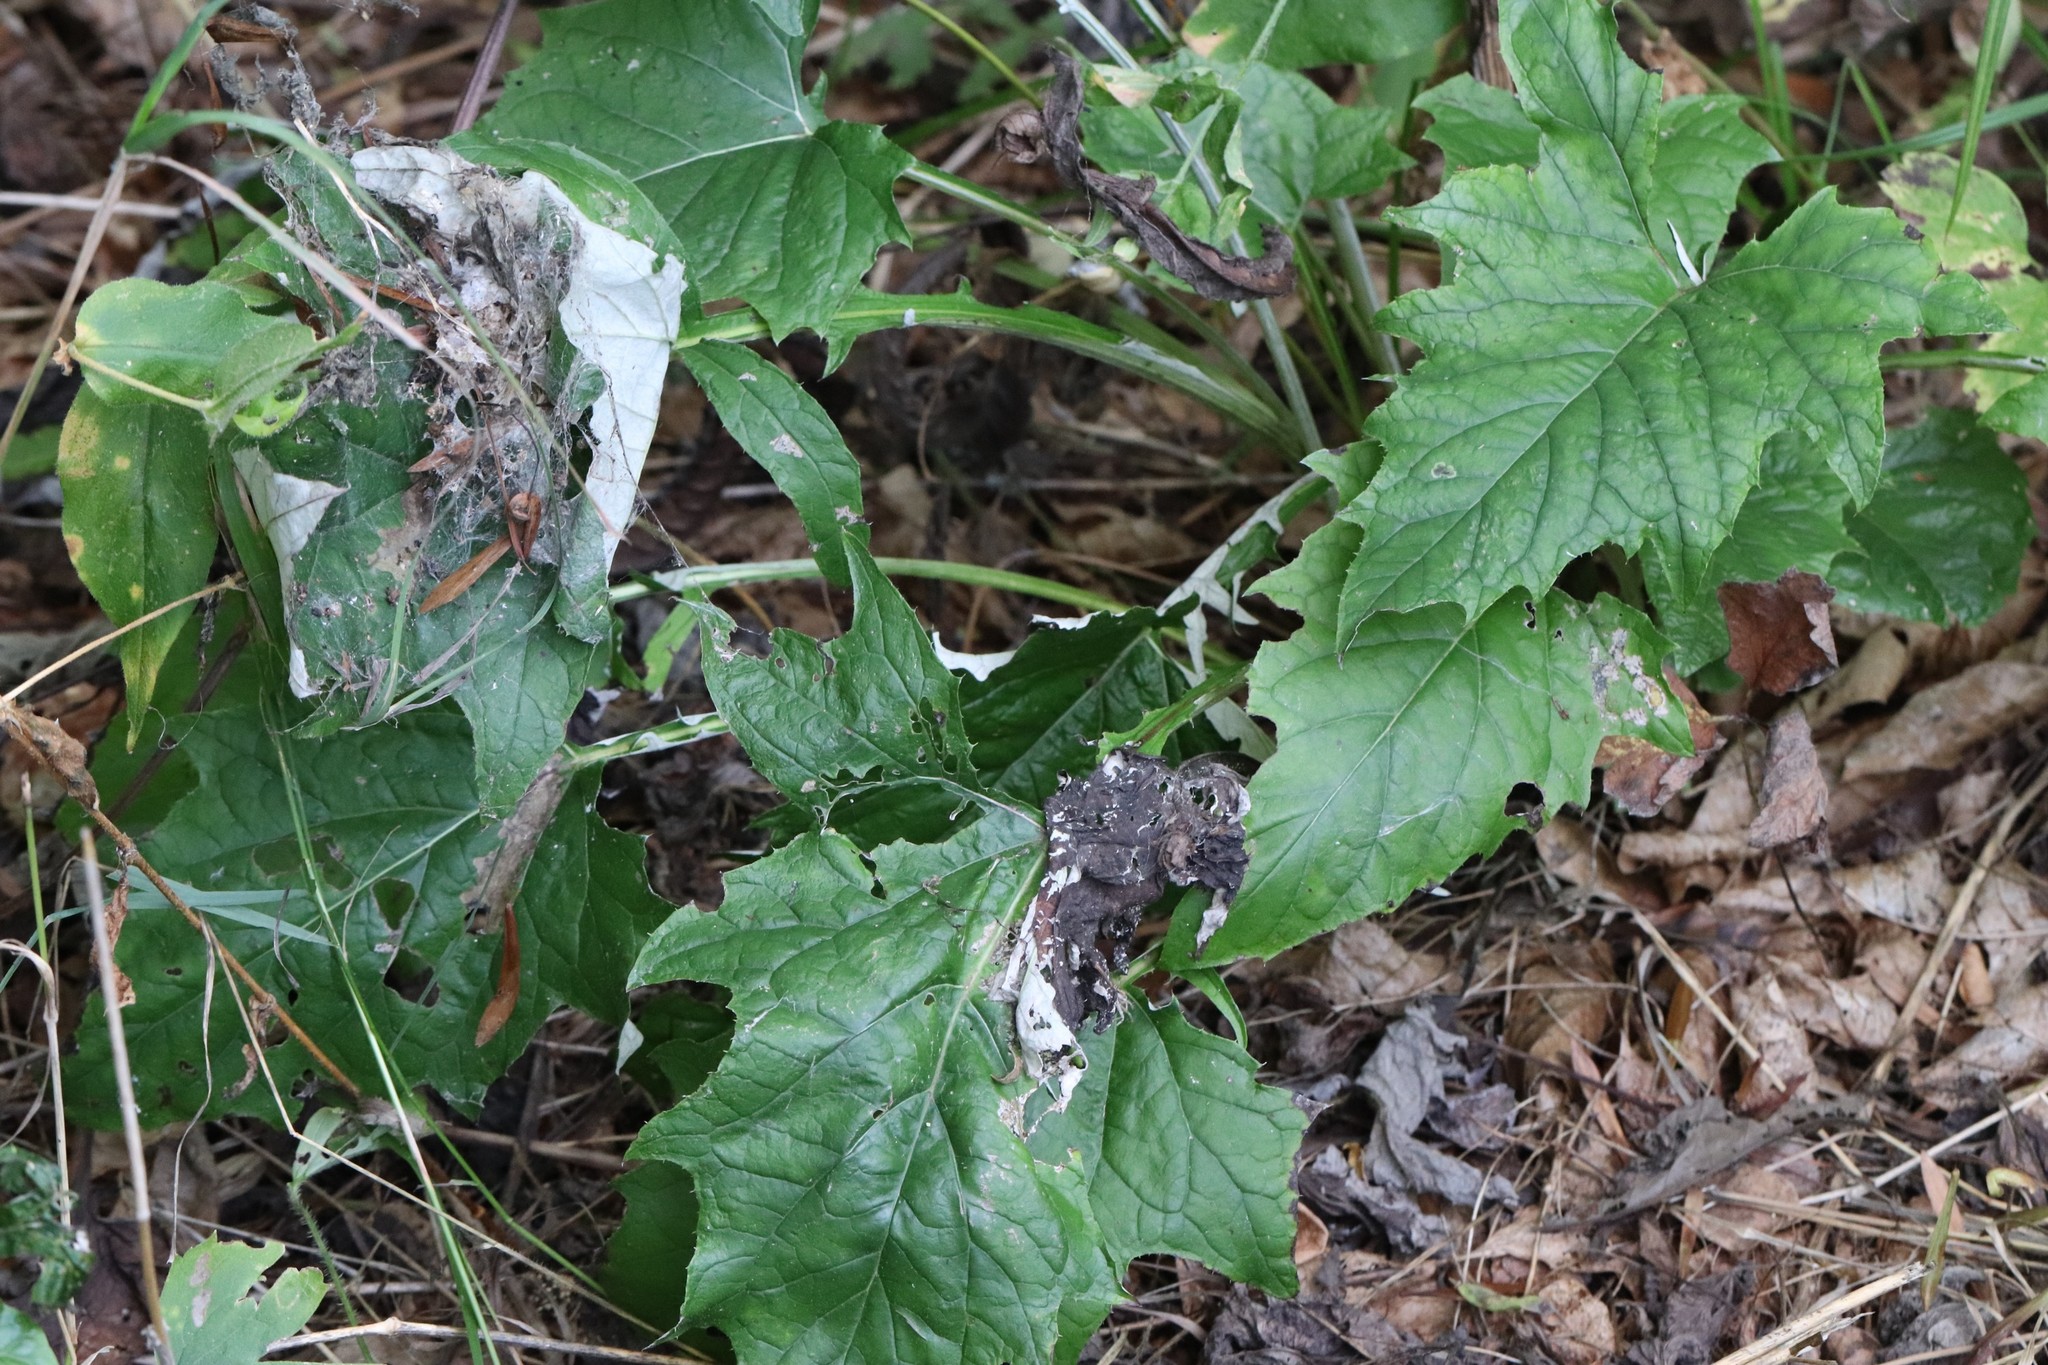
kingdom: Plantae
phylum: Tracheophyta
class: Magnoliopsida
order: Asterales
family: Asteraceae
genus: Synurus
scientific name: Synurus deltoides
